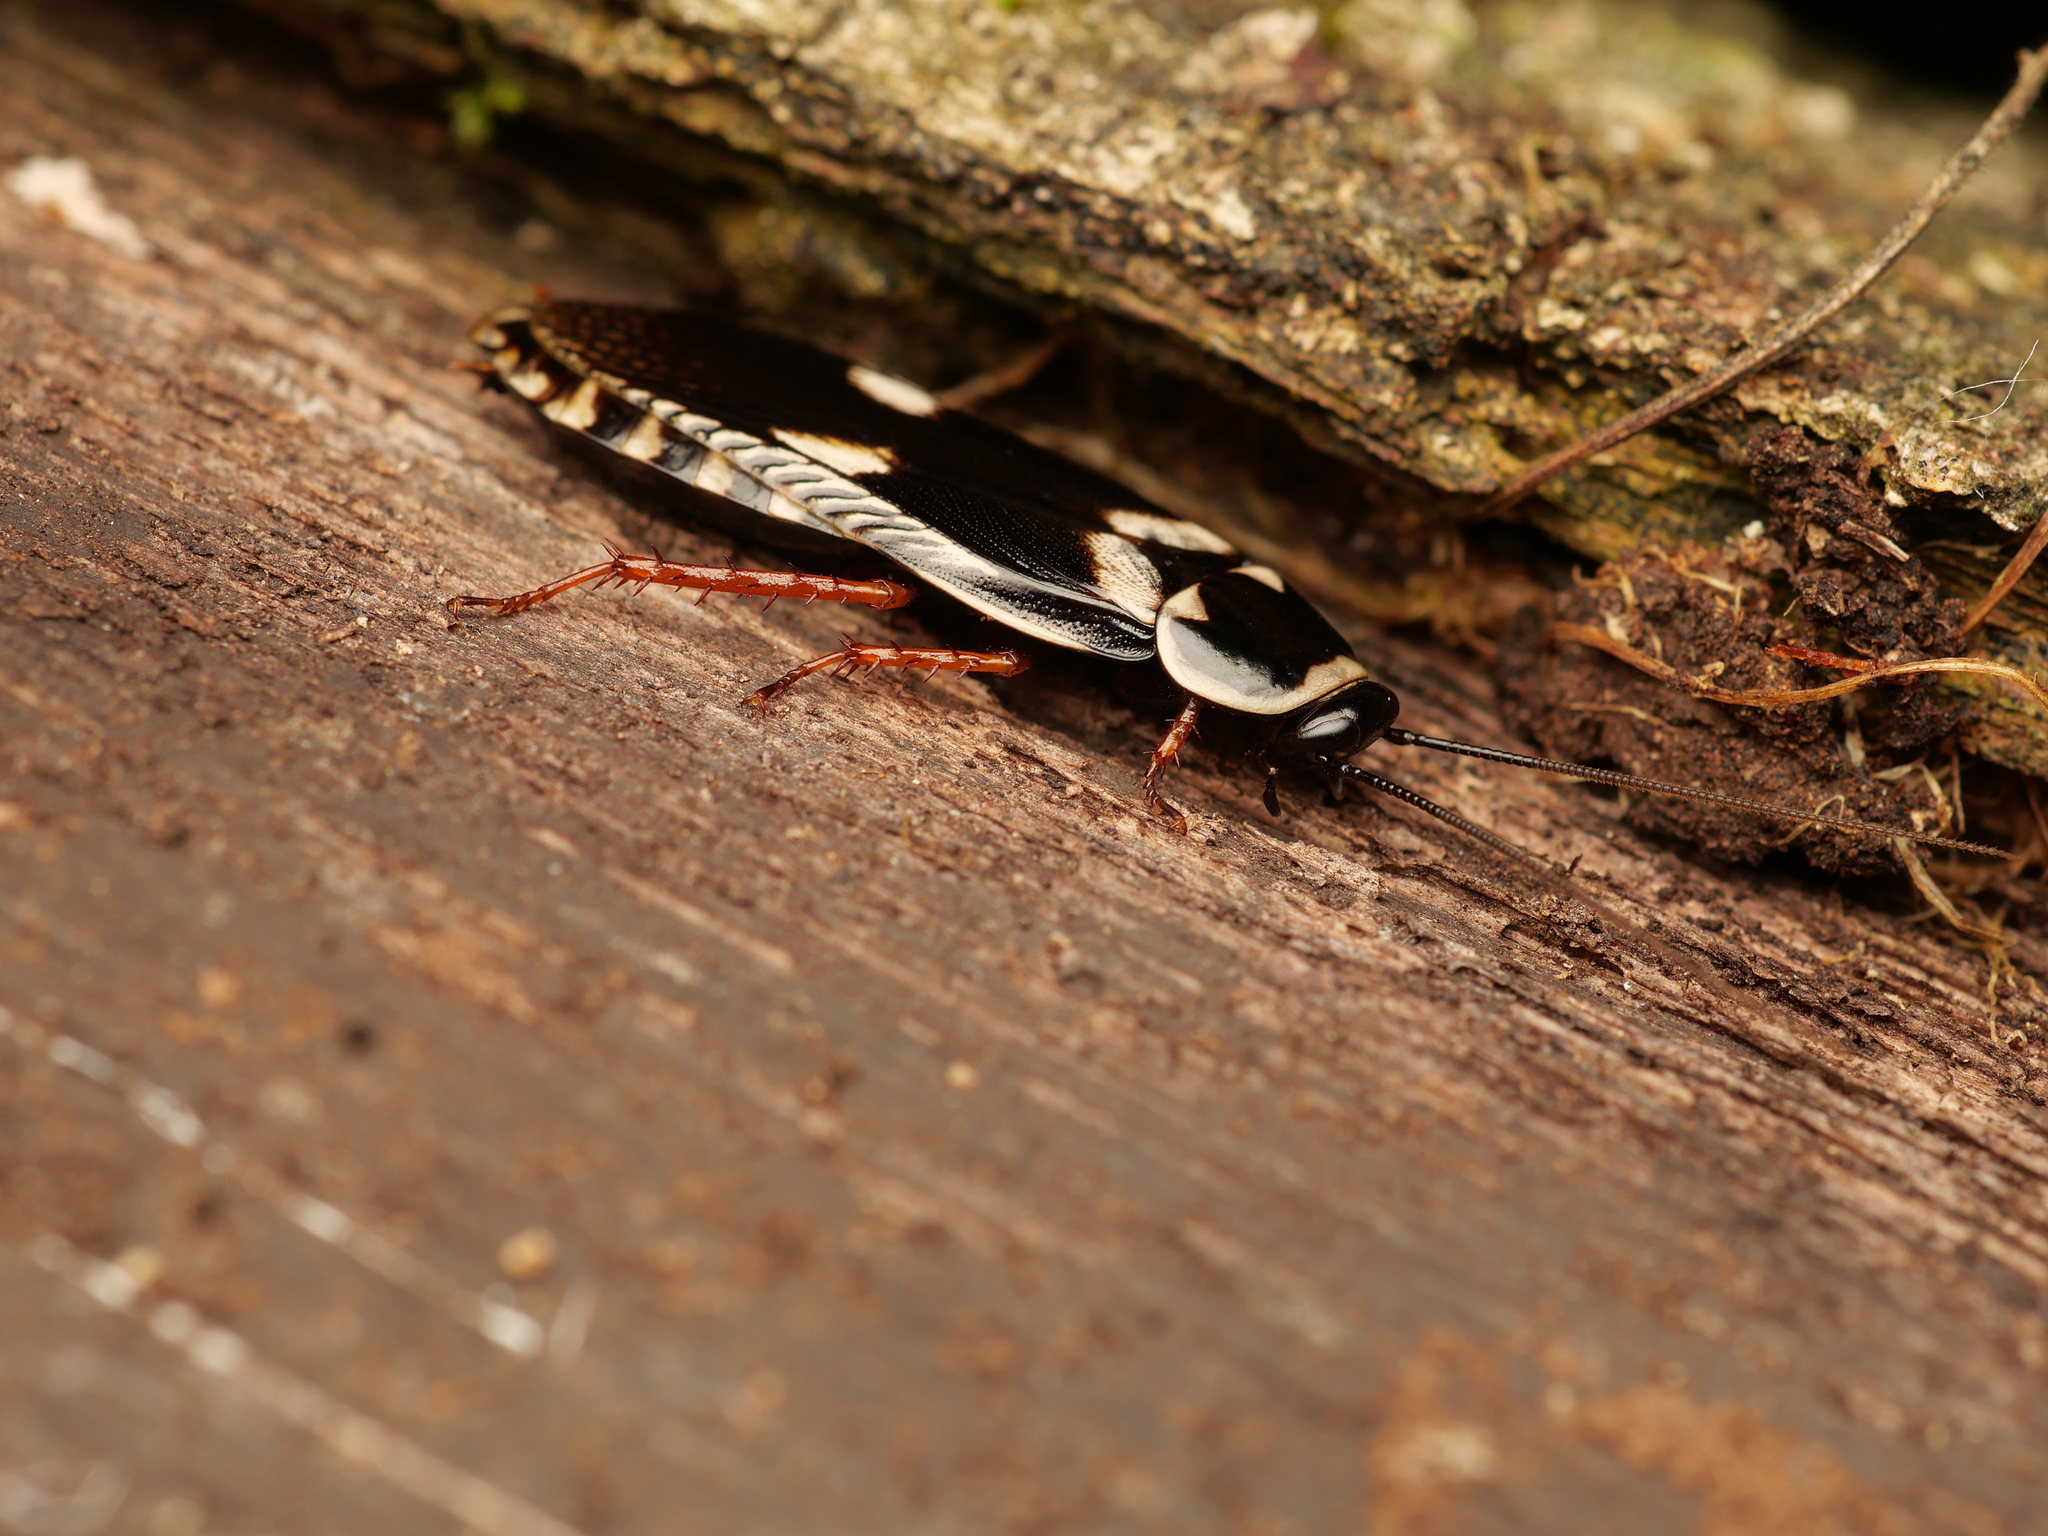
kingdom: Animalia
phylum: Arthropoda
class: Insecta
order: Blattodea
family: Blaberidae
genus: Paranauphoeta
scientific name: Paranauphoeta rufipes
